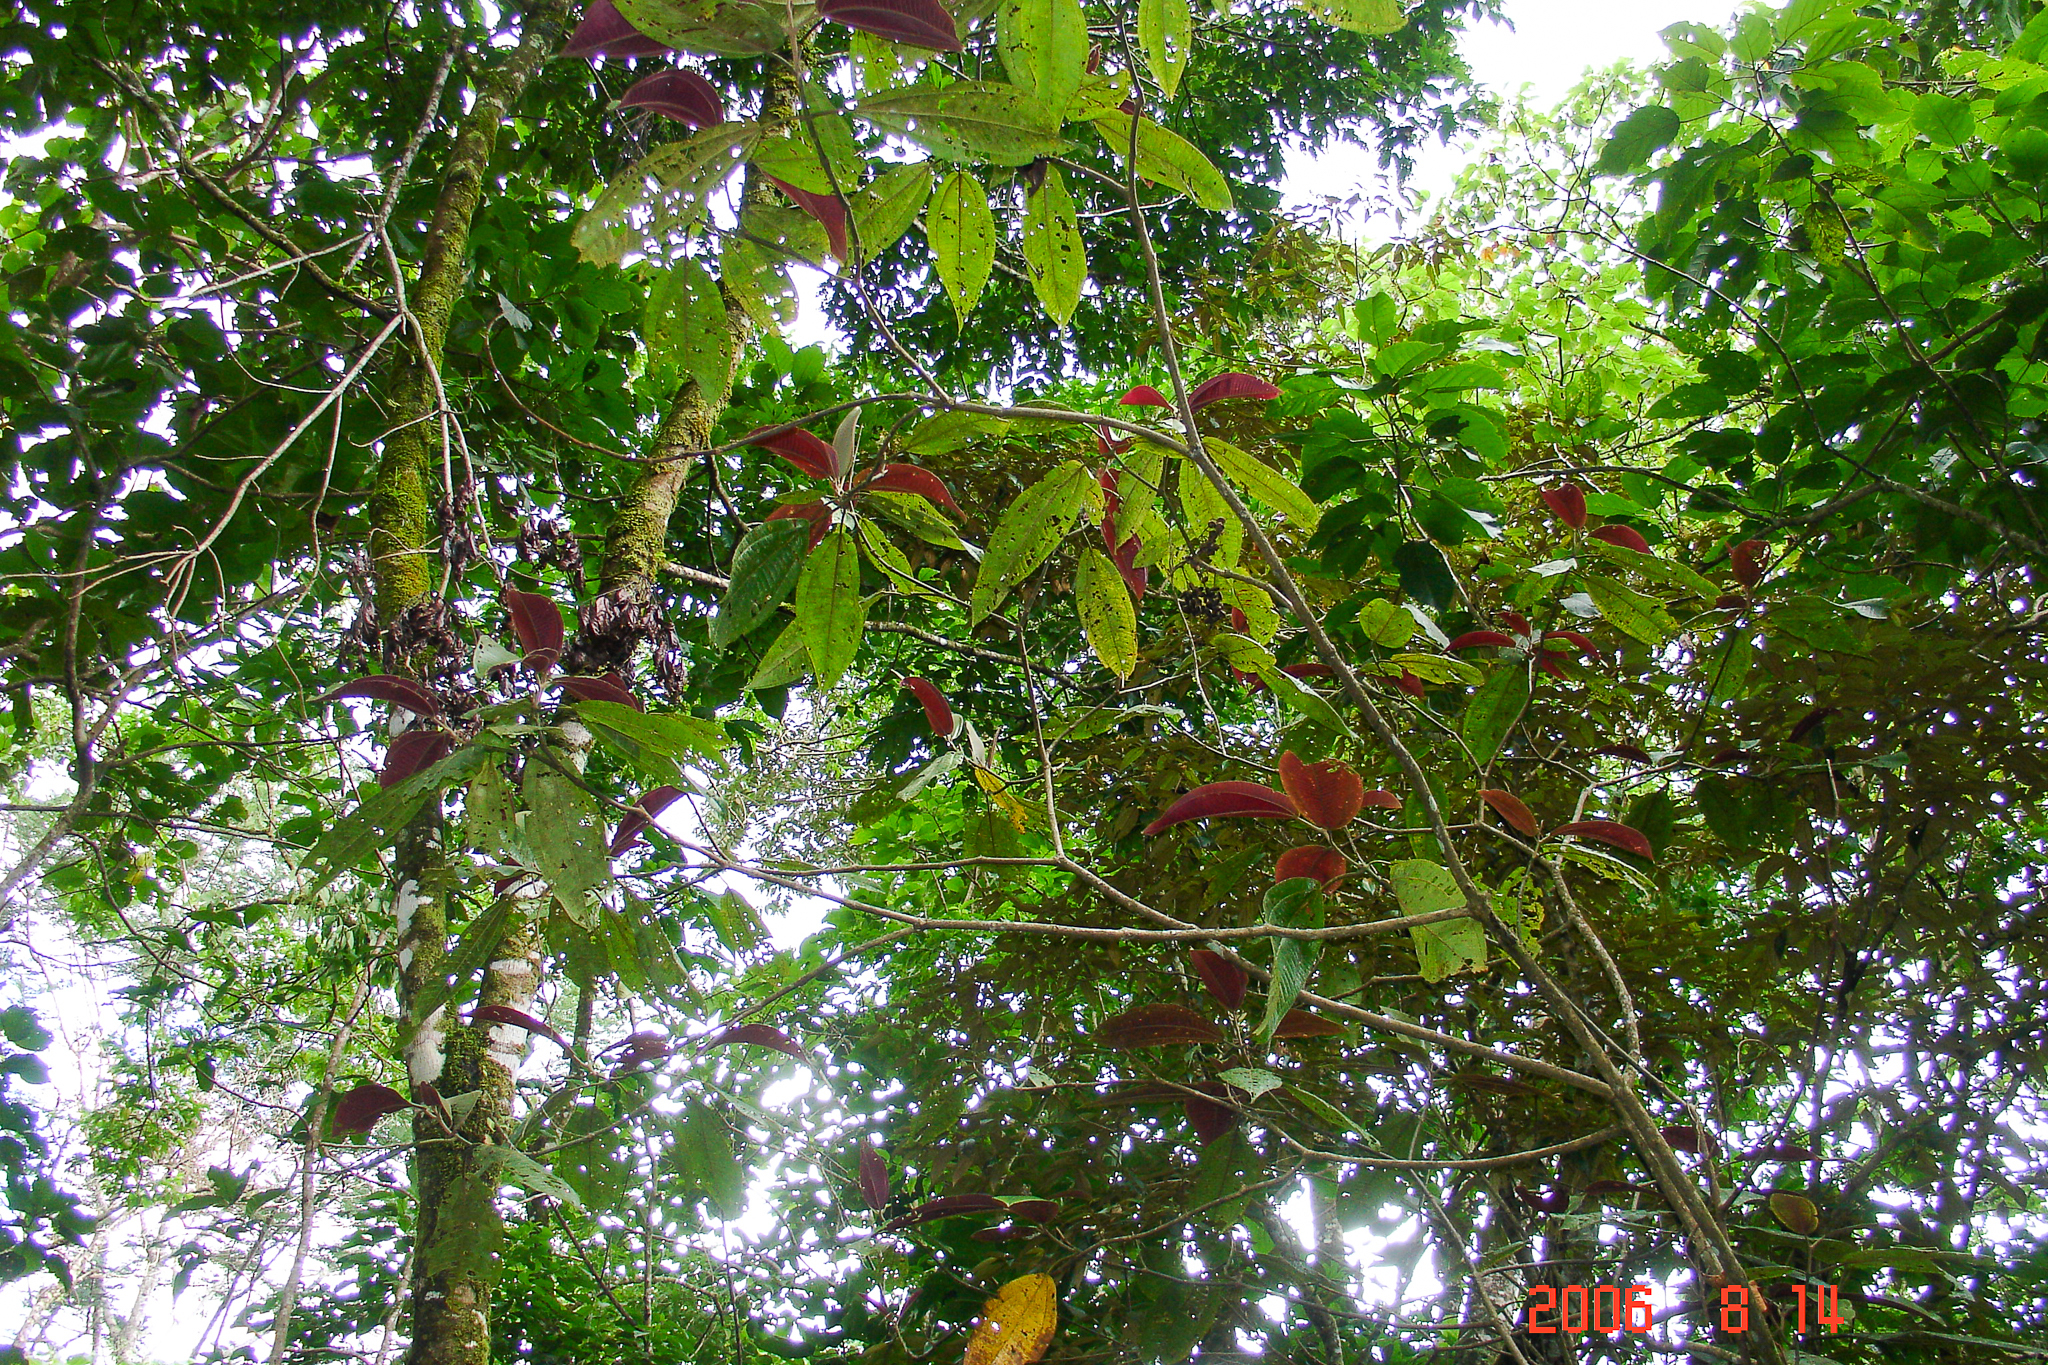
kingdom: Plantae
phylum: Tracheophyta
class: Magnoliopsida
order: Myrtales
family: Melastomataceae
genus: Miconia
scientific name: Miconia calvescens
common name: Purple plague
